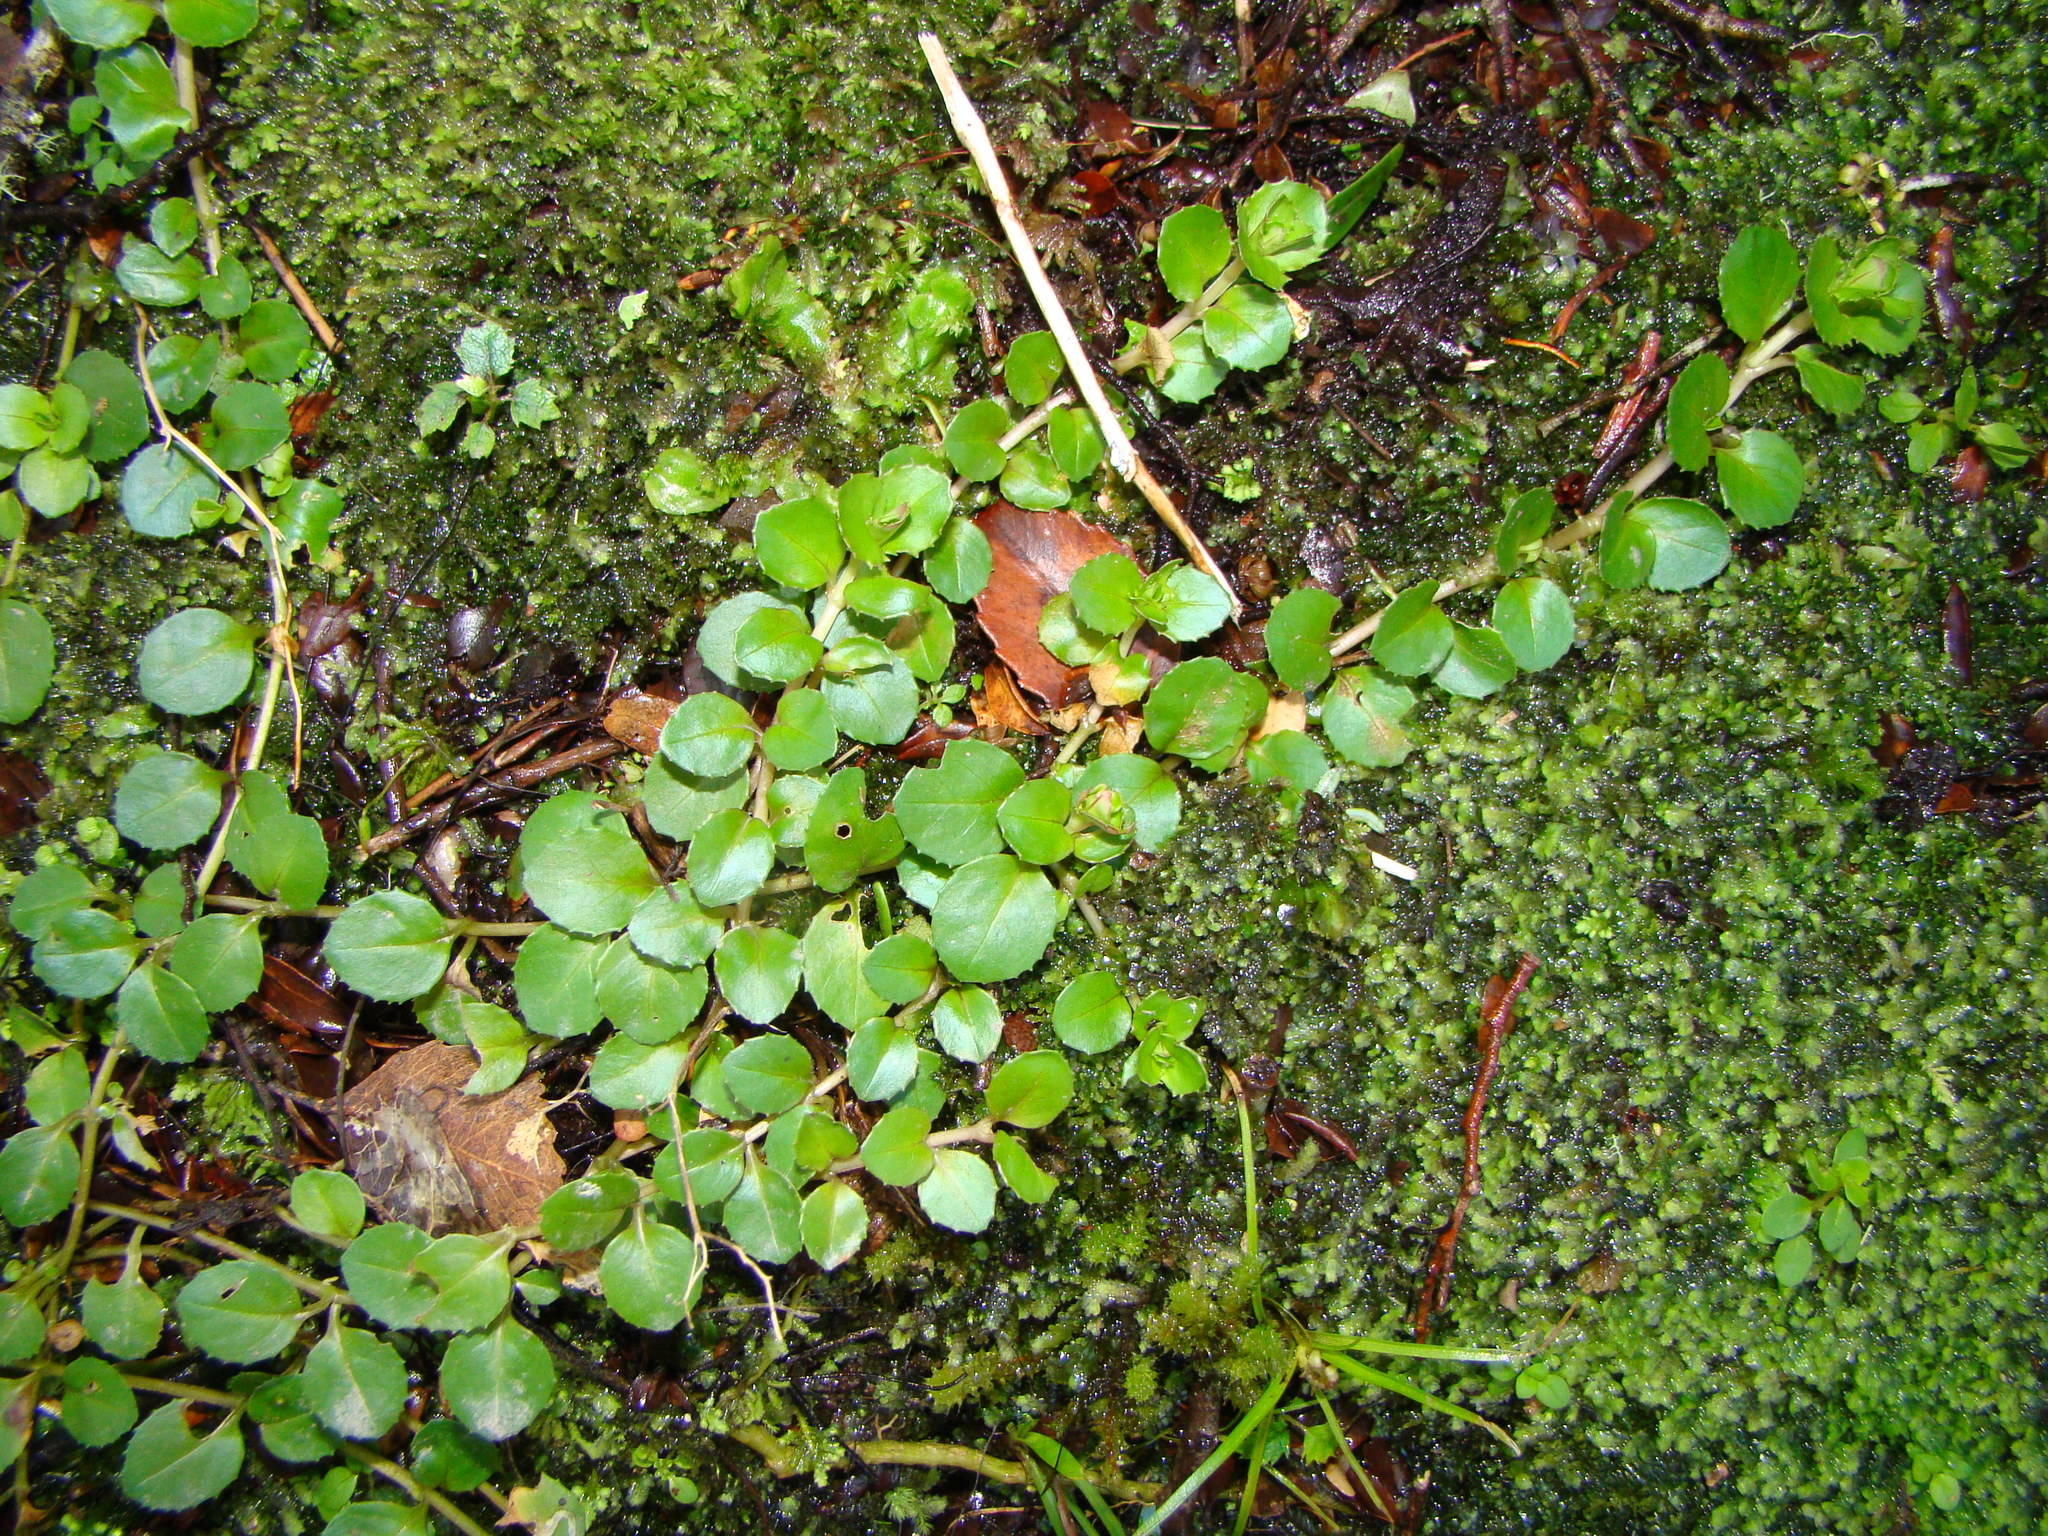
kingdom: Plantae
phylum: Tracheophyta
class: Magnoliopsida
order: Myrtales
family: Onagraceae
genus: Epilobium
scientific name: Epilobium pedunculare
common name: Rockery willowherb
